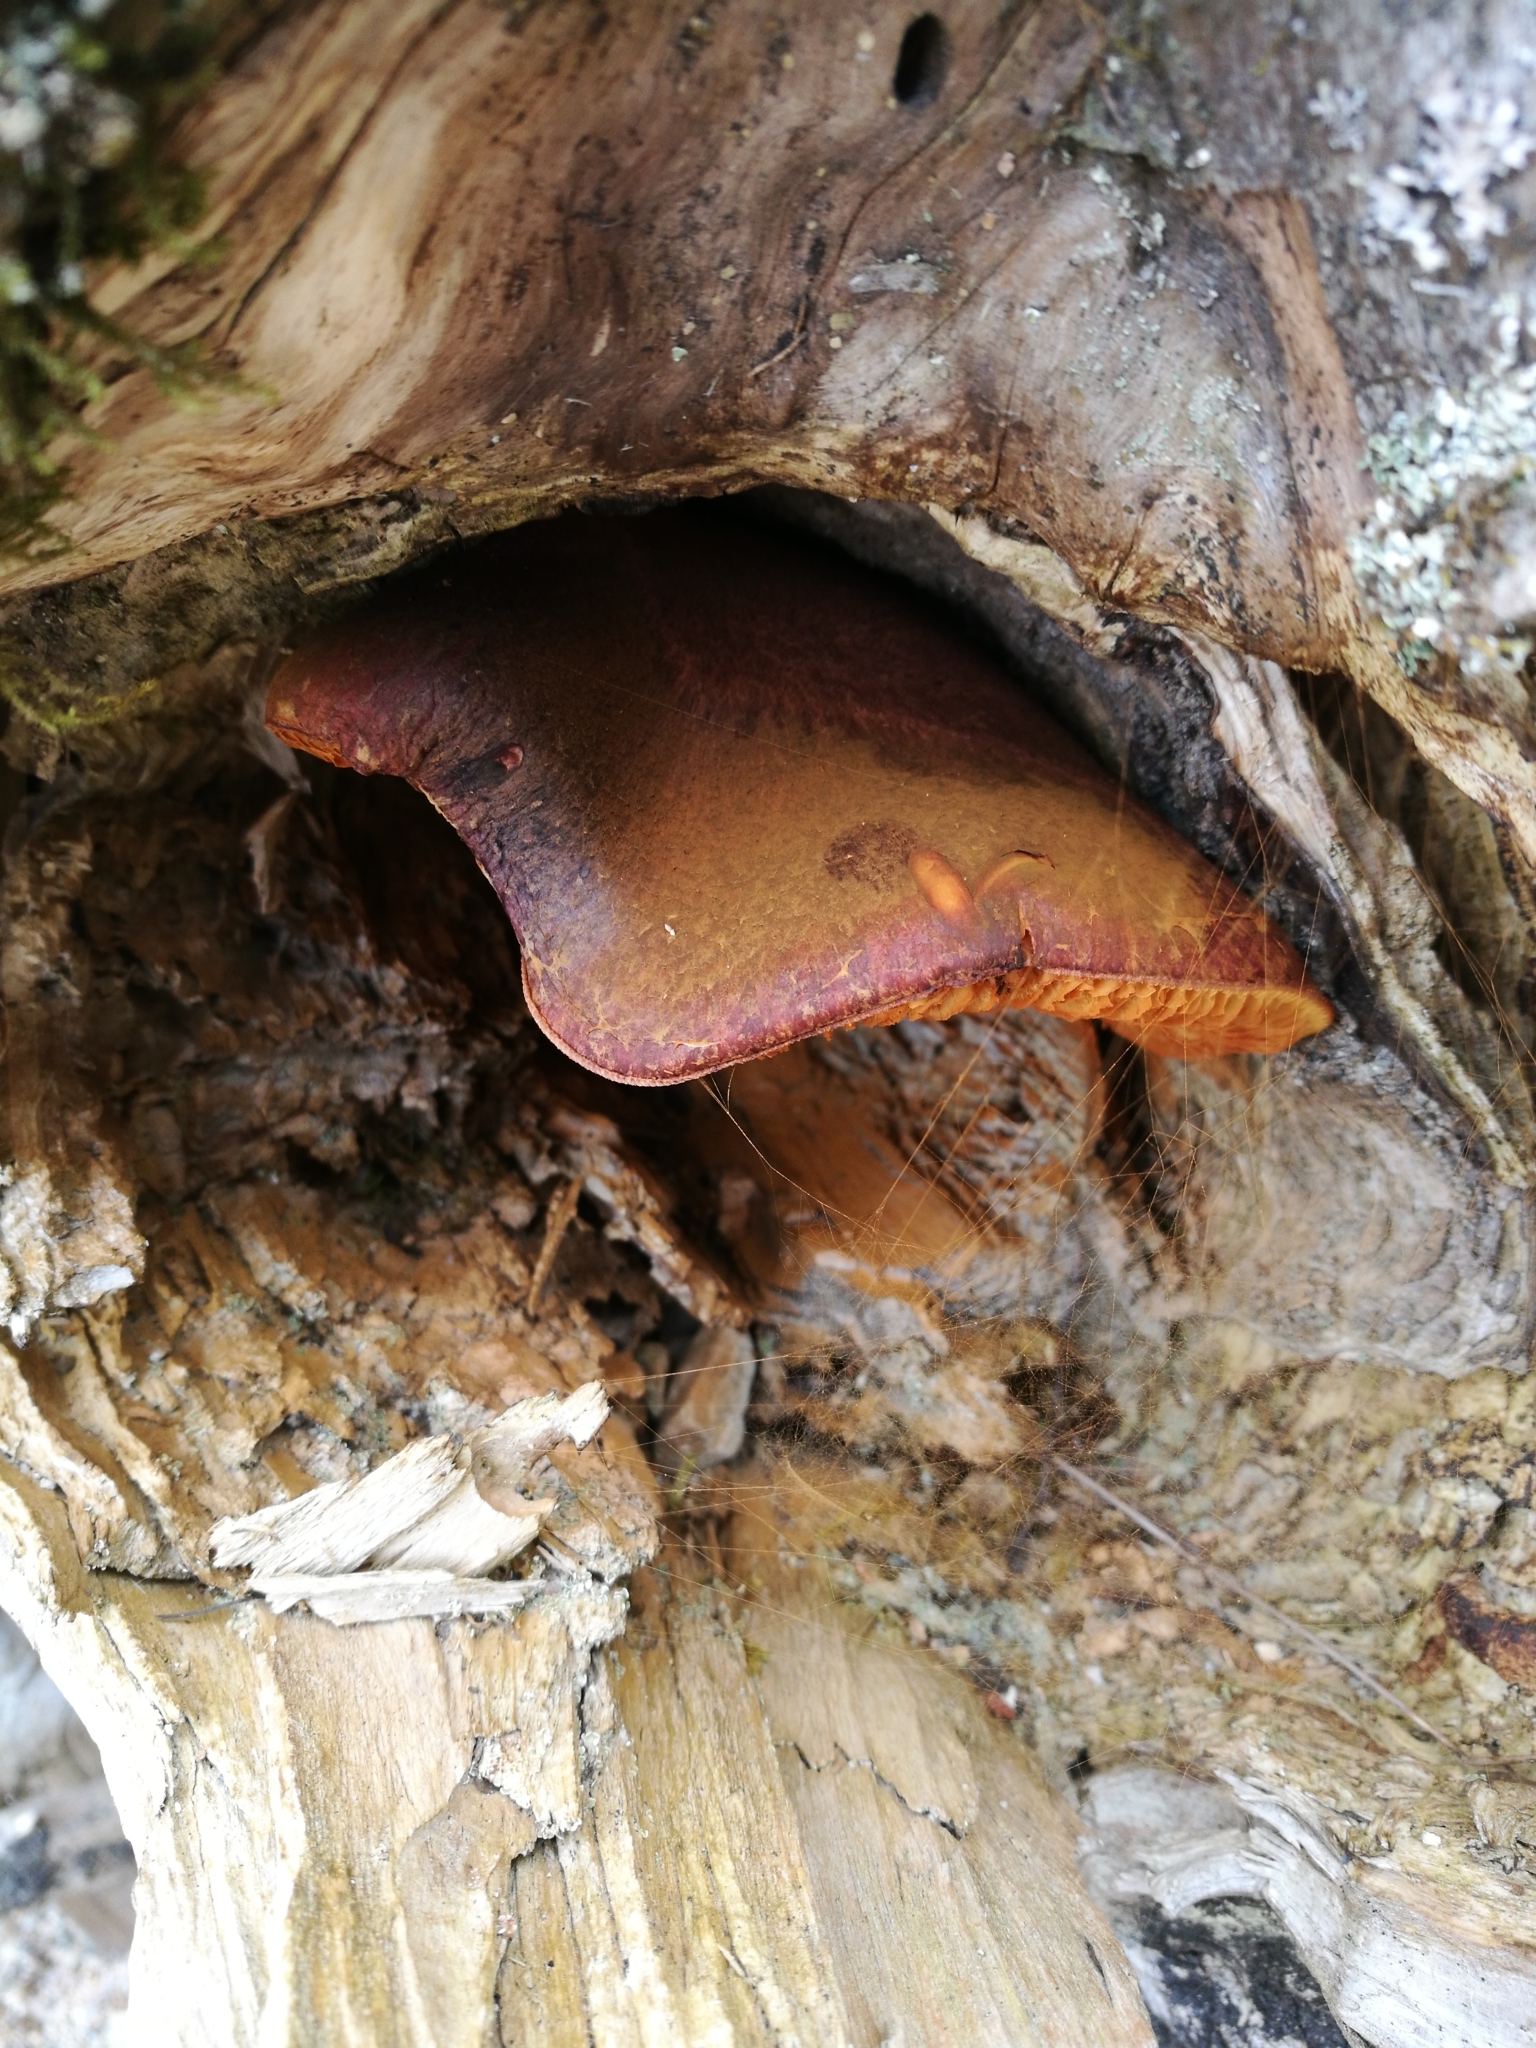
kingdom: Fungi
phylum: Basidiomycota
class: Agaricomycetes
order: Agaricales
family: Hymenogastraceae
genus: Gymnopilus
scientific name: Gymnopilus purpuratus
